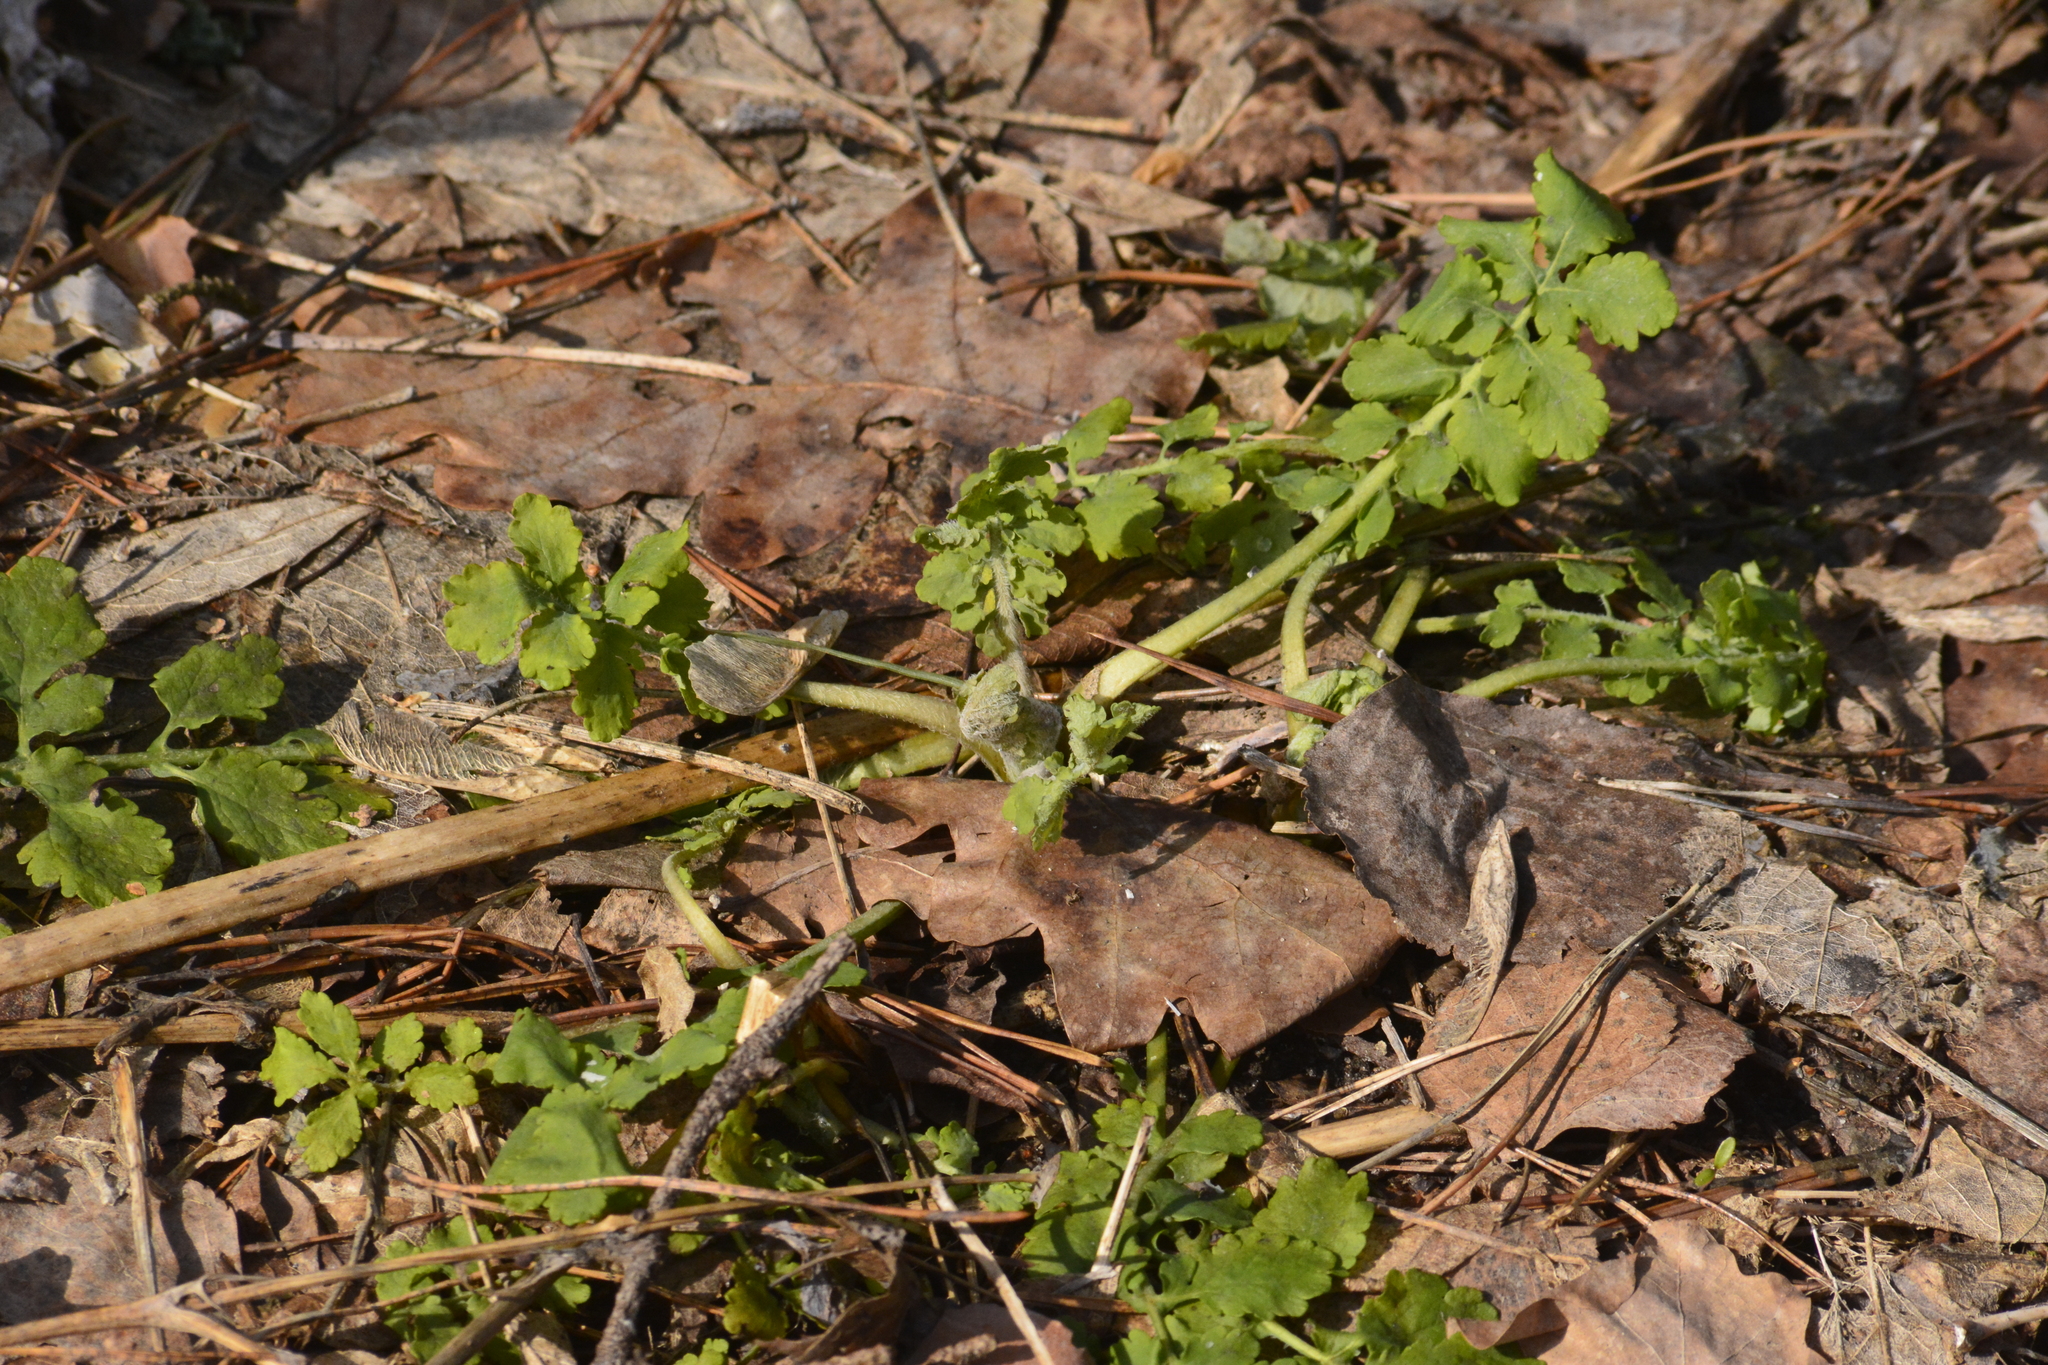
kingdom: Plantae
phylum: Tracheophyta
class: Magnoliopsida
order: Ranunculales
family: Papaveraceae
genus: Chelidonium
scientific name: Chelidonium majus
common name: Greater celandine
